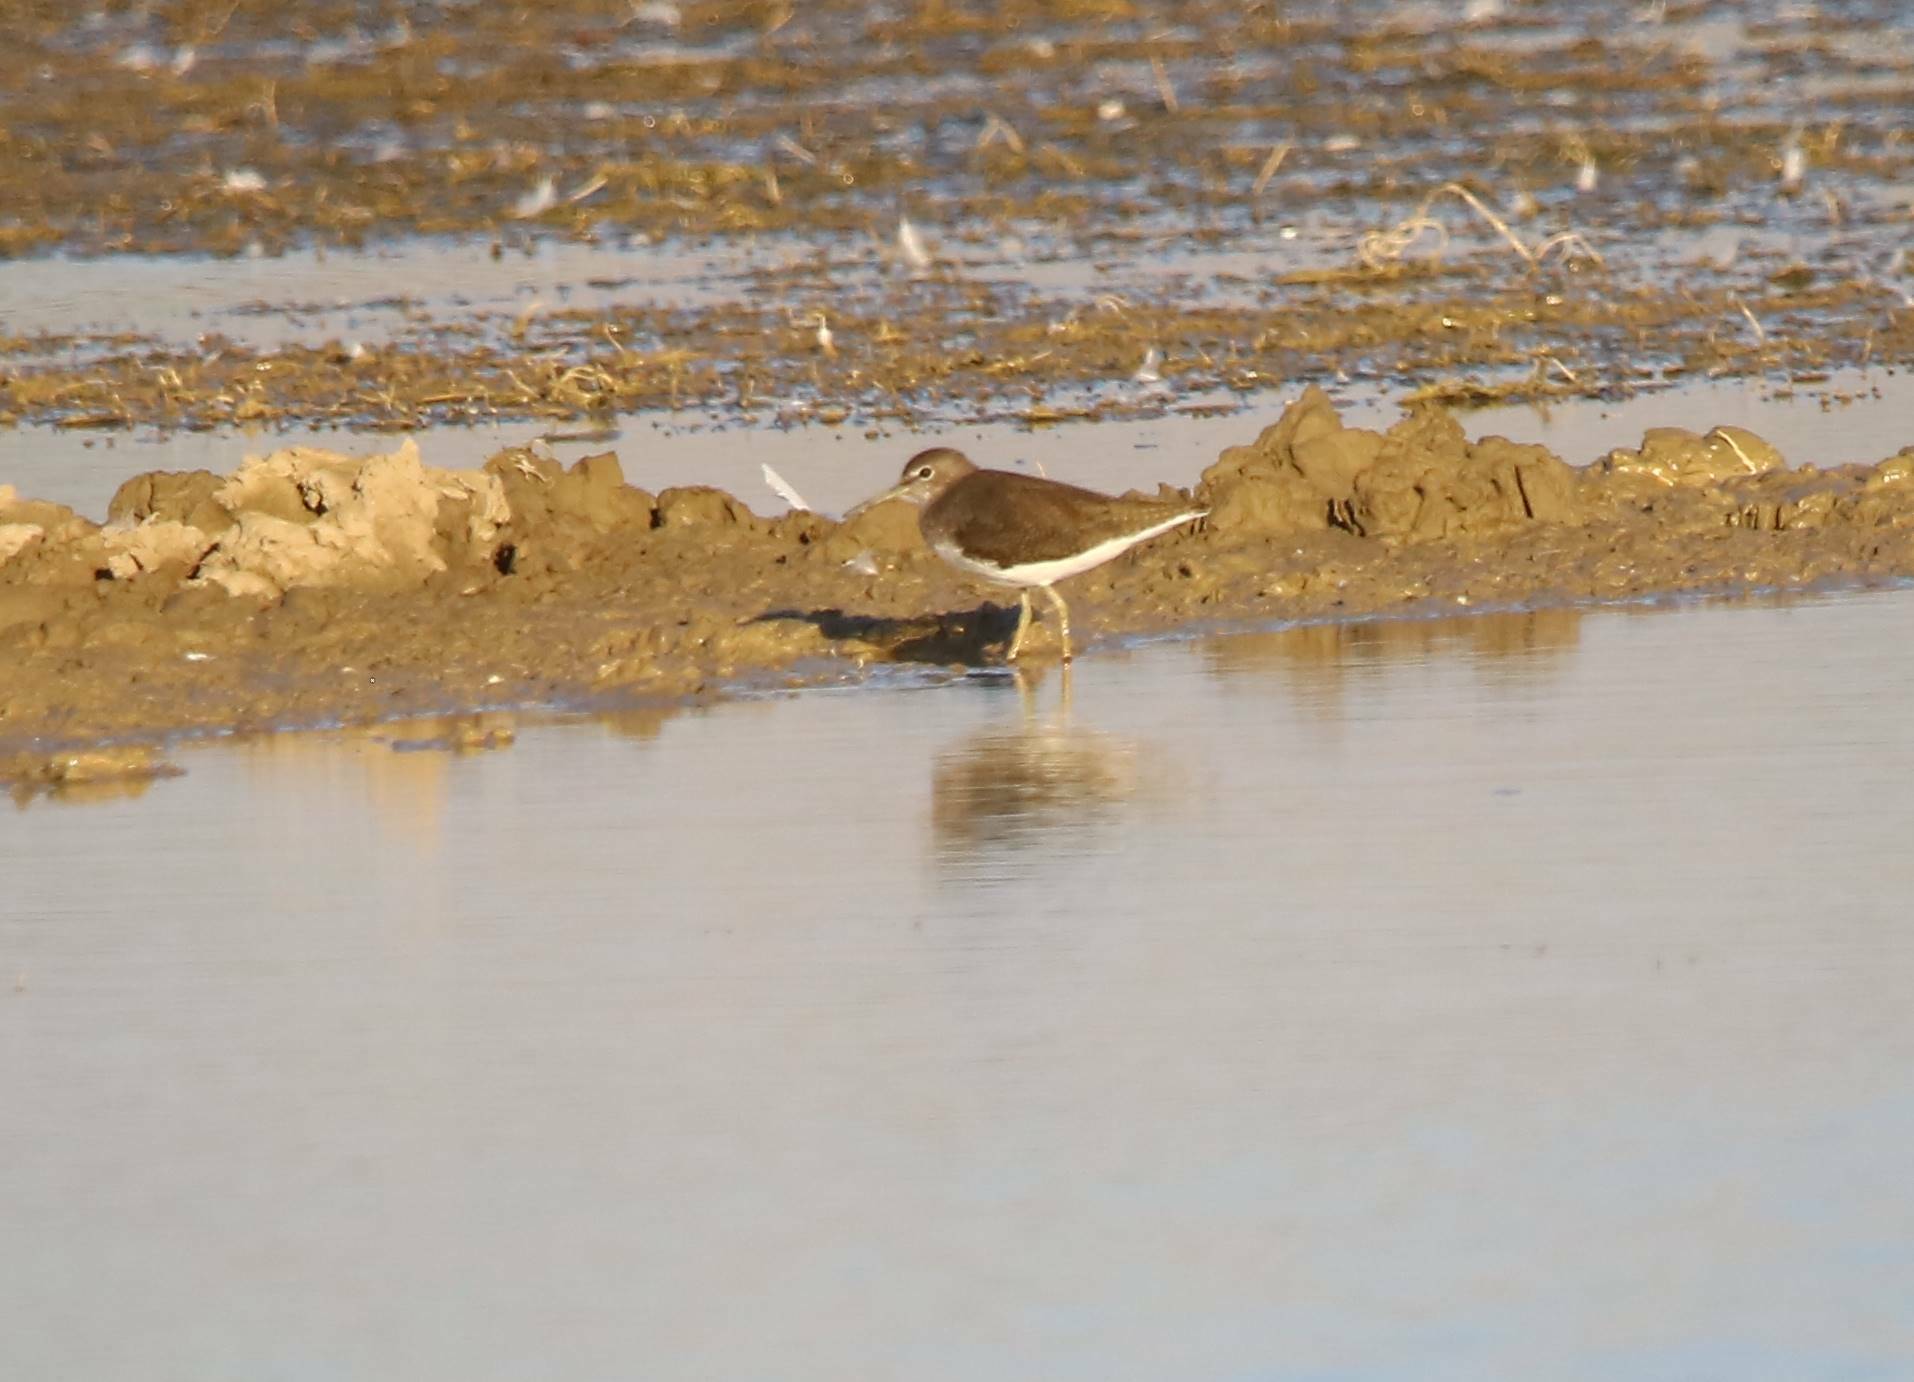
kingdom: Animalia
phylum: Chordata
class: Aves
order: Charadriiformes
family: Scolopacidae
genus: Tringa
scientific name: Tringa ochropus
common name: Green sandpiper
